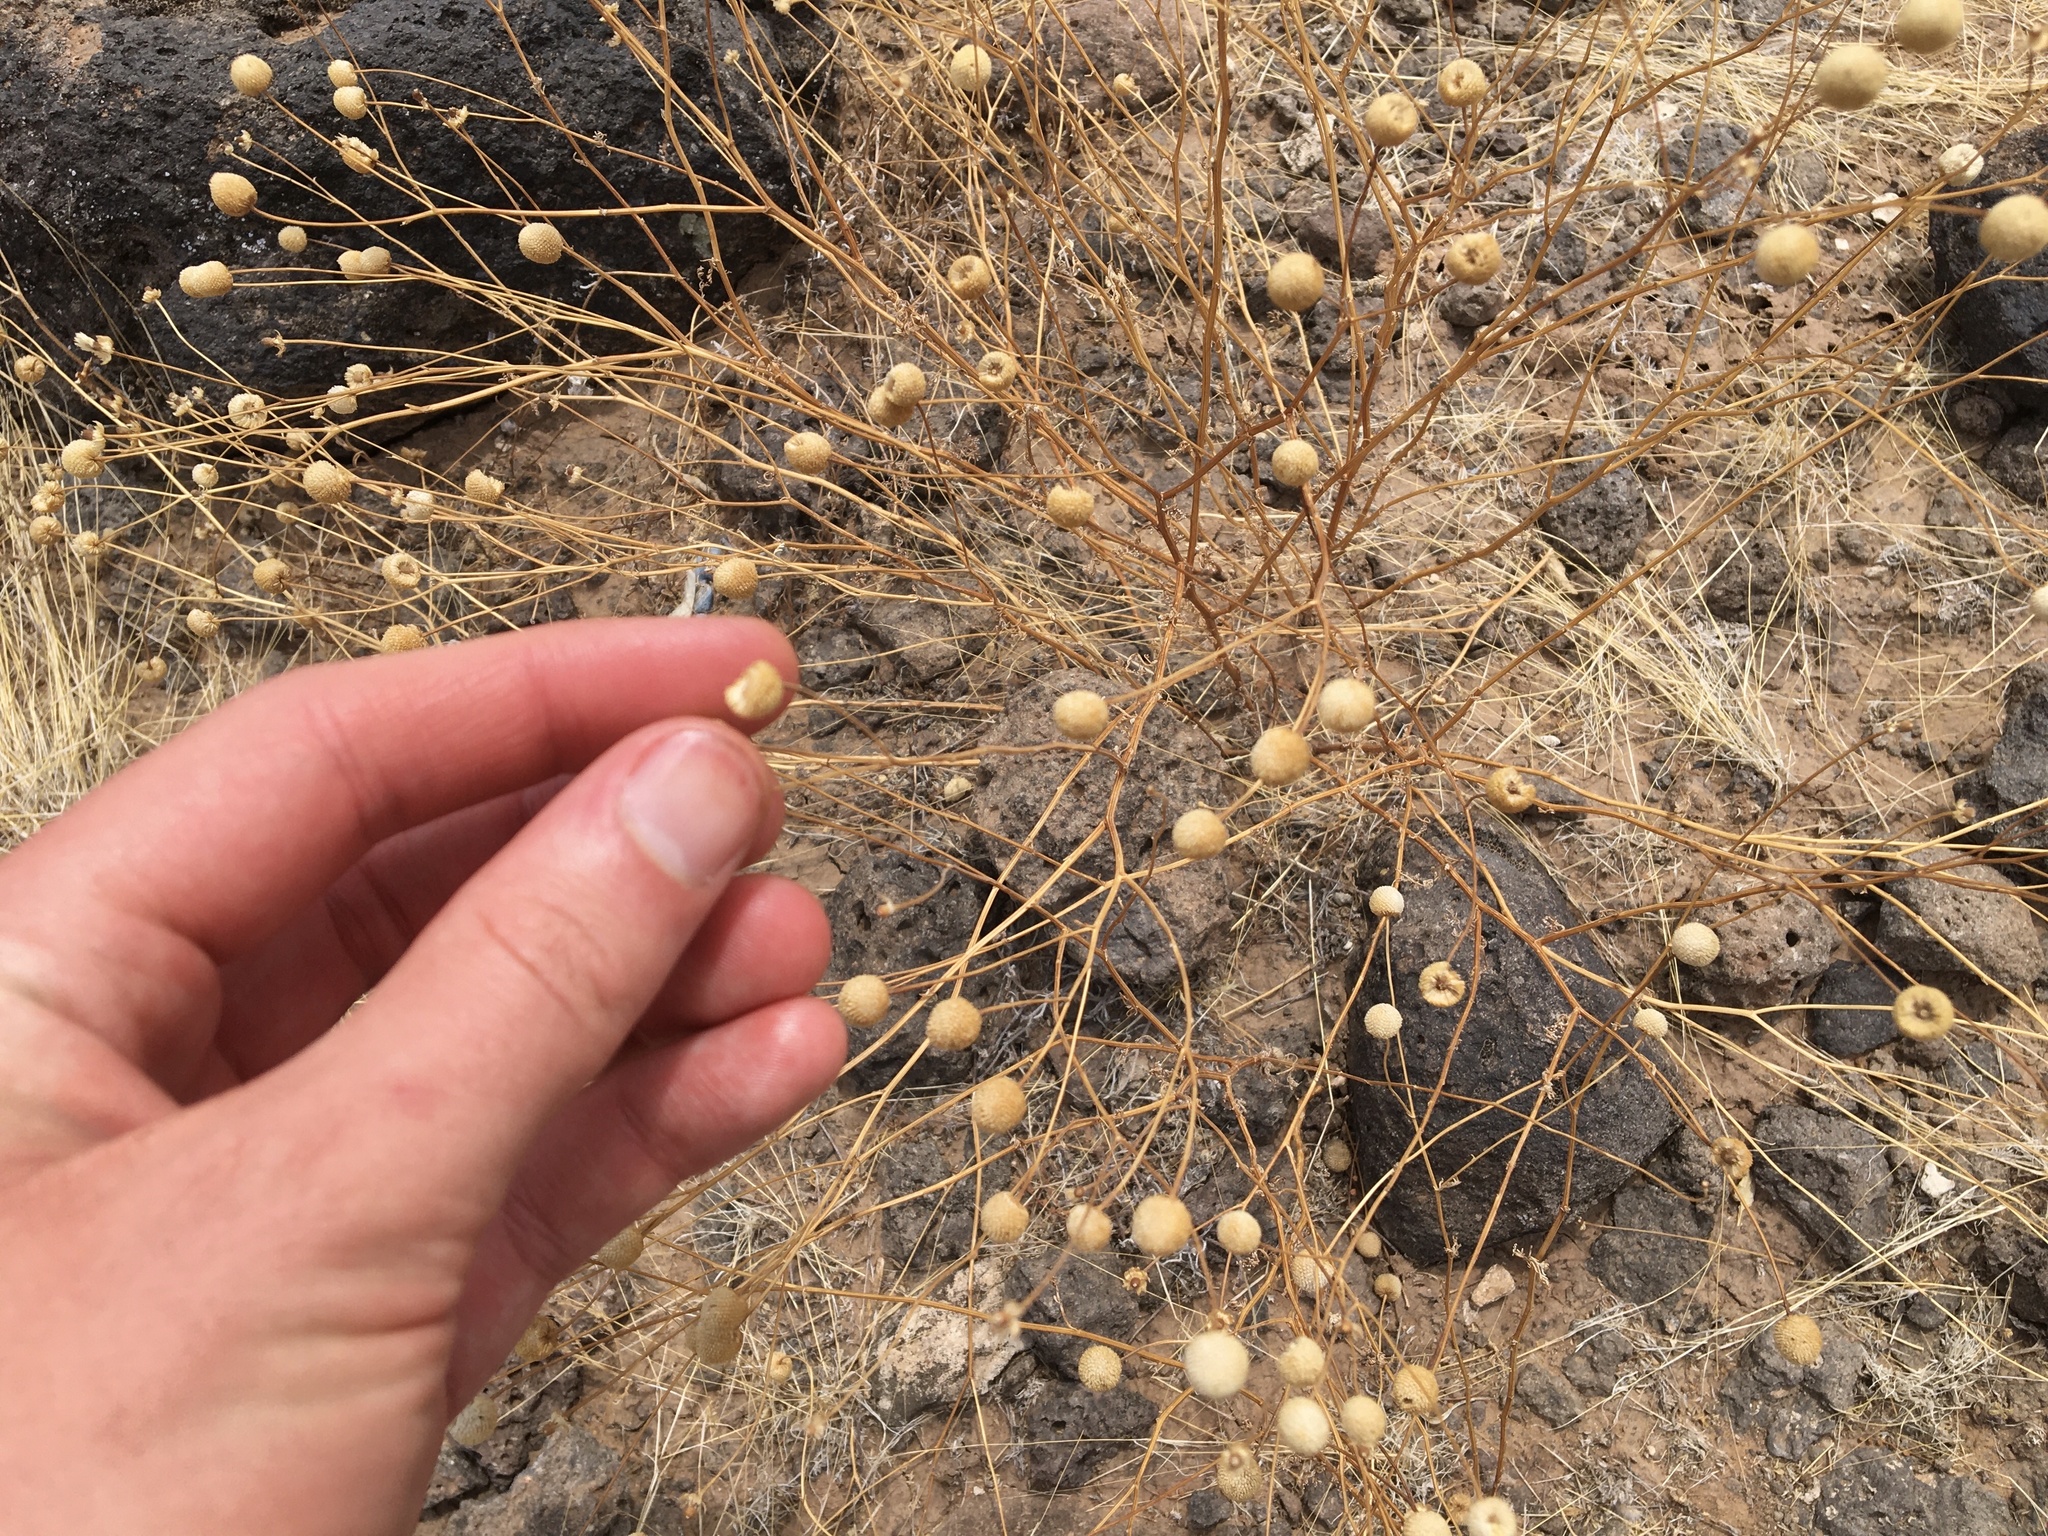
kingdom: Plantae
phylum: Tracheophyta
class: Magnoliopsida
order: Asterales
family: Asteraceae
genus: Oncosiphon
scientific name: Oncosiphon pilulifer
